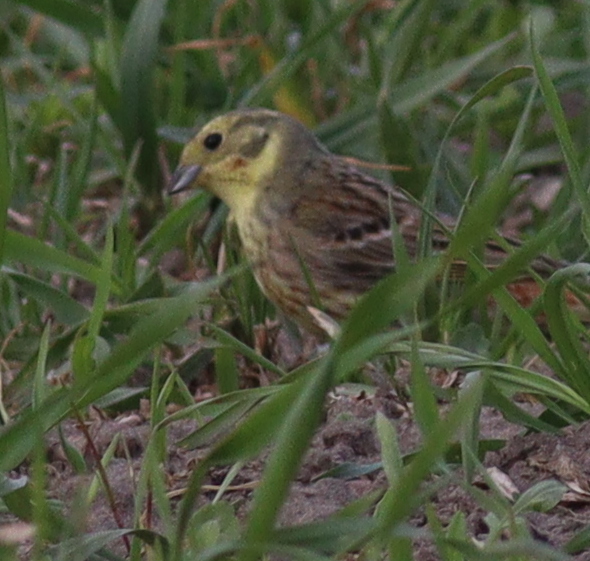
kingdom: Animalia
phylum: Chordata
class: Aves
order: Passeriformes
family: Emberizidae
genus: Emberiza
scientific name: Emberiza citrinella
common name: Yellowhammer
